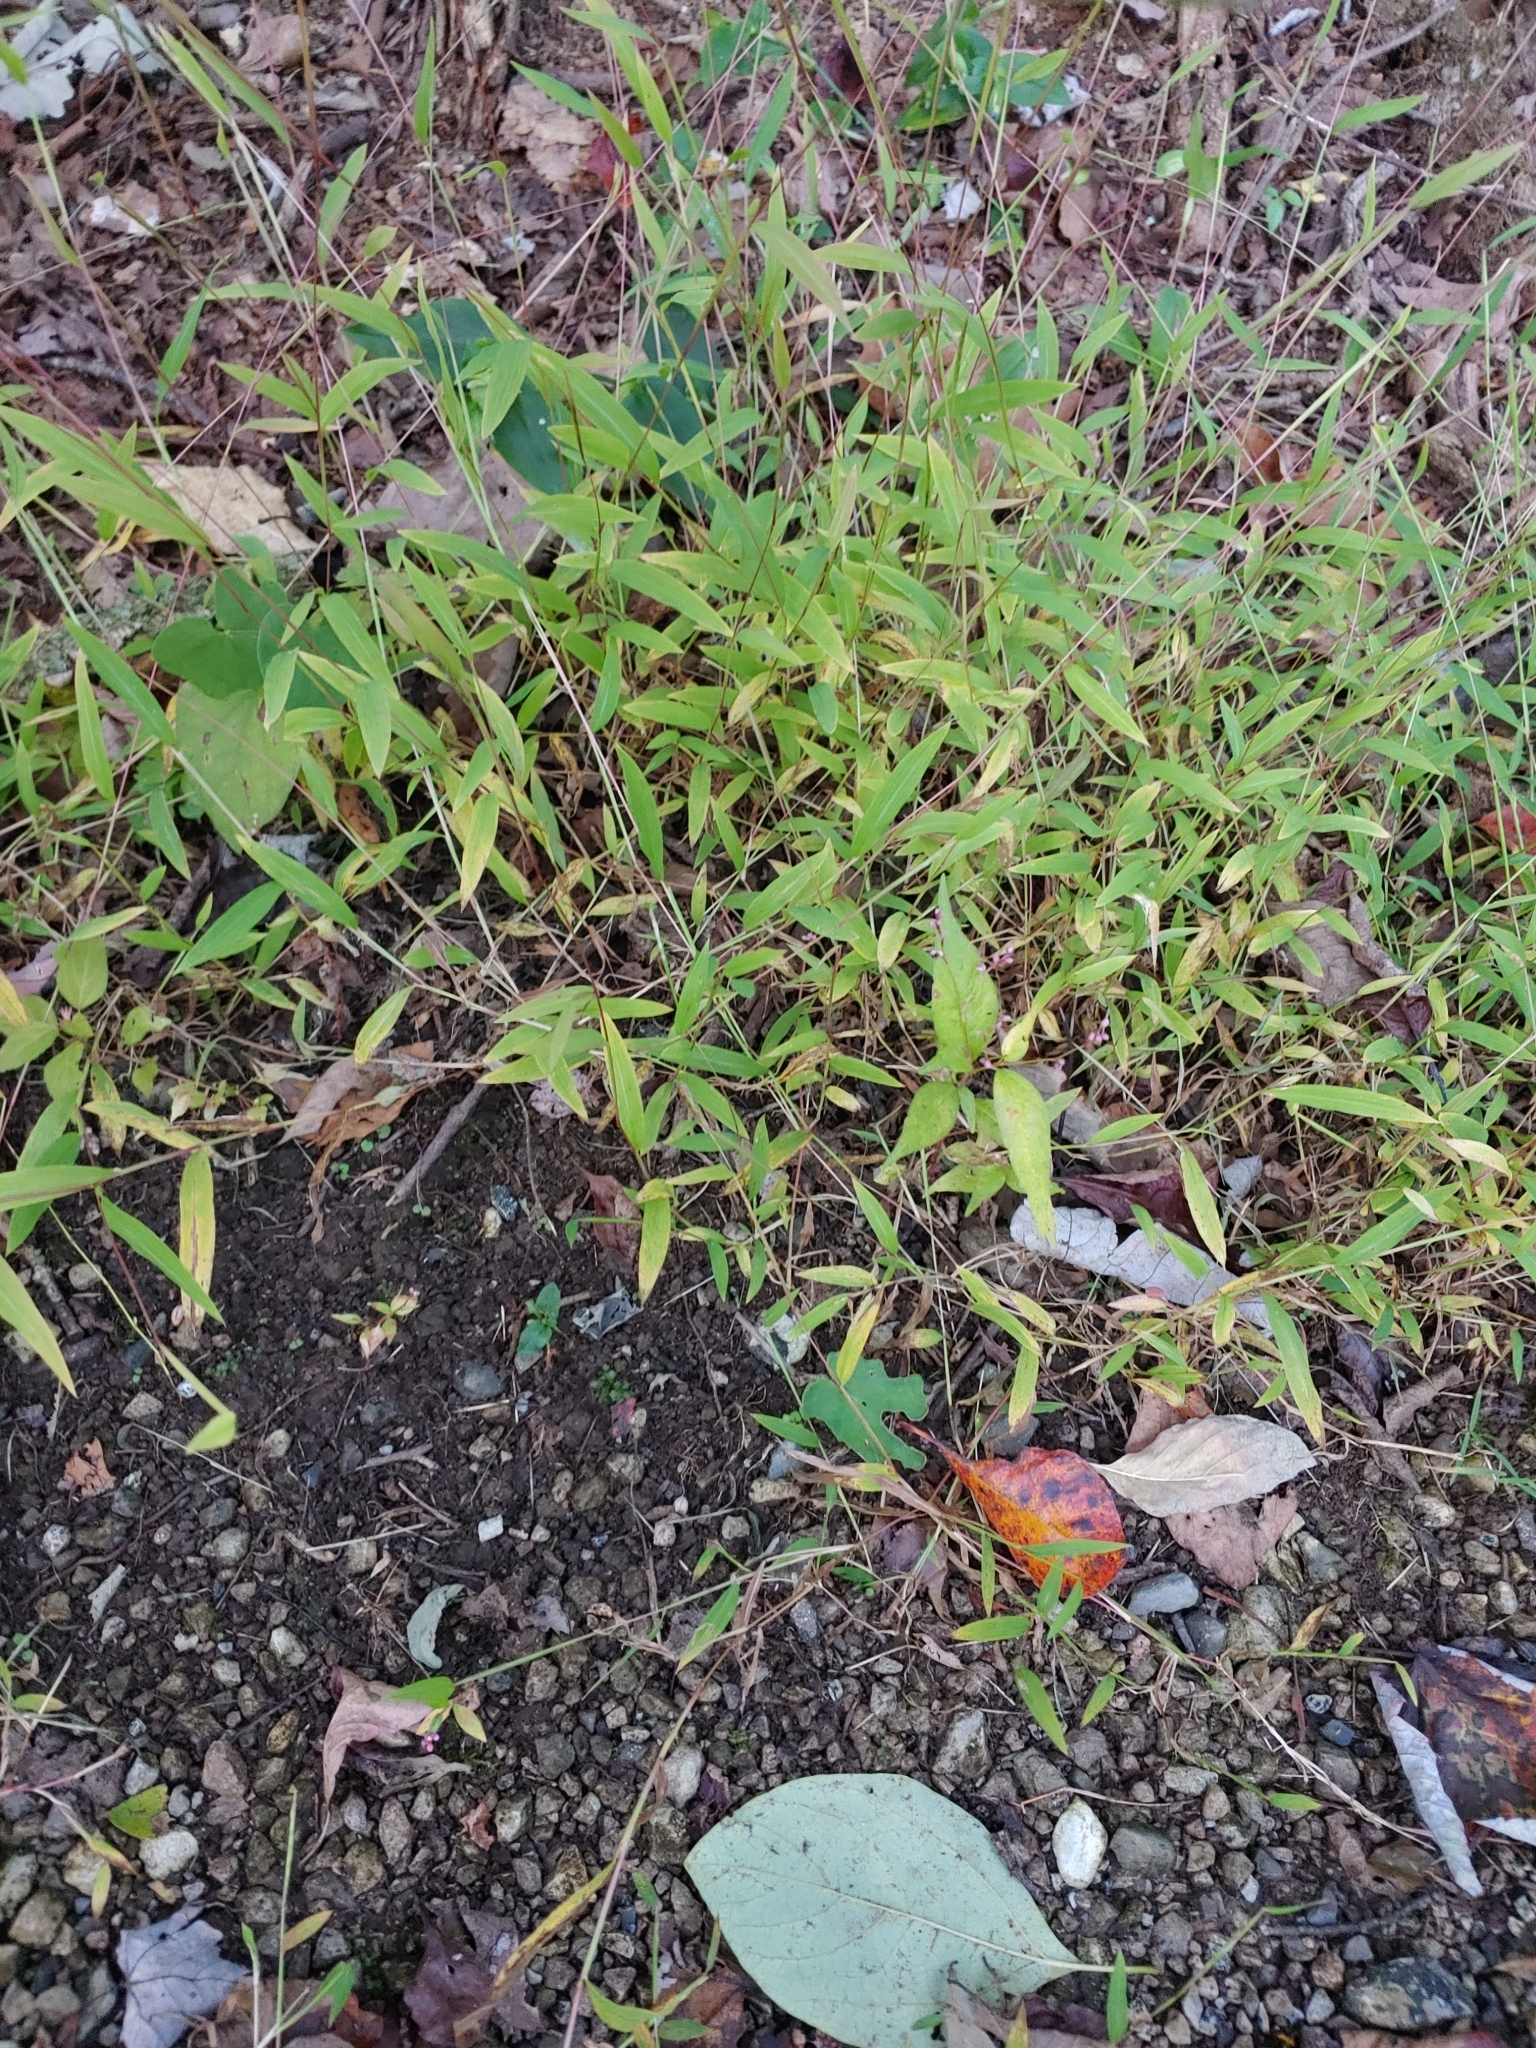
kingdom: Plantae
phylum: Tracheophyta
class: Liliopsida
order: Poales
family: Poaceae
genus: Microstegium
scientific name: Microstegium vimineum
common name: Japanese stiltgrass
